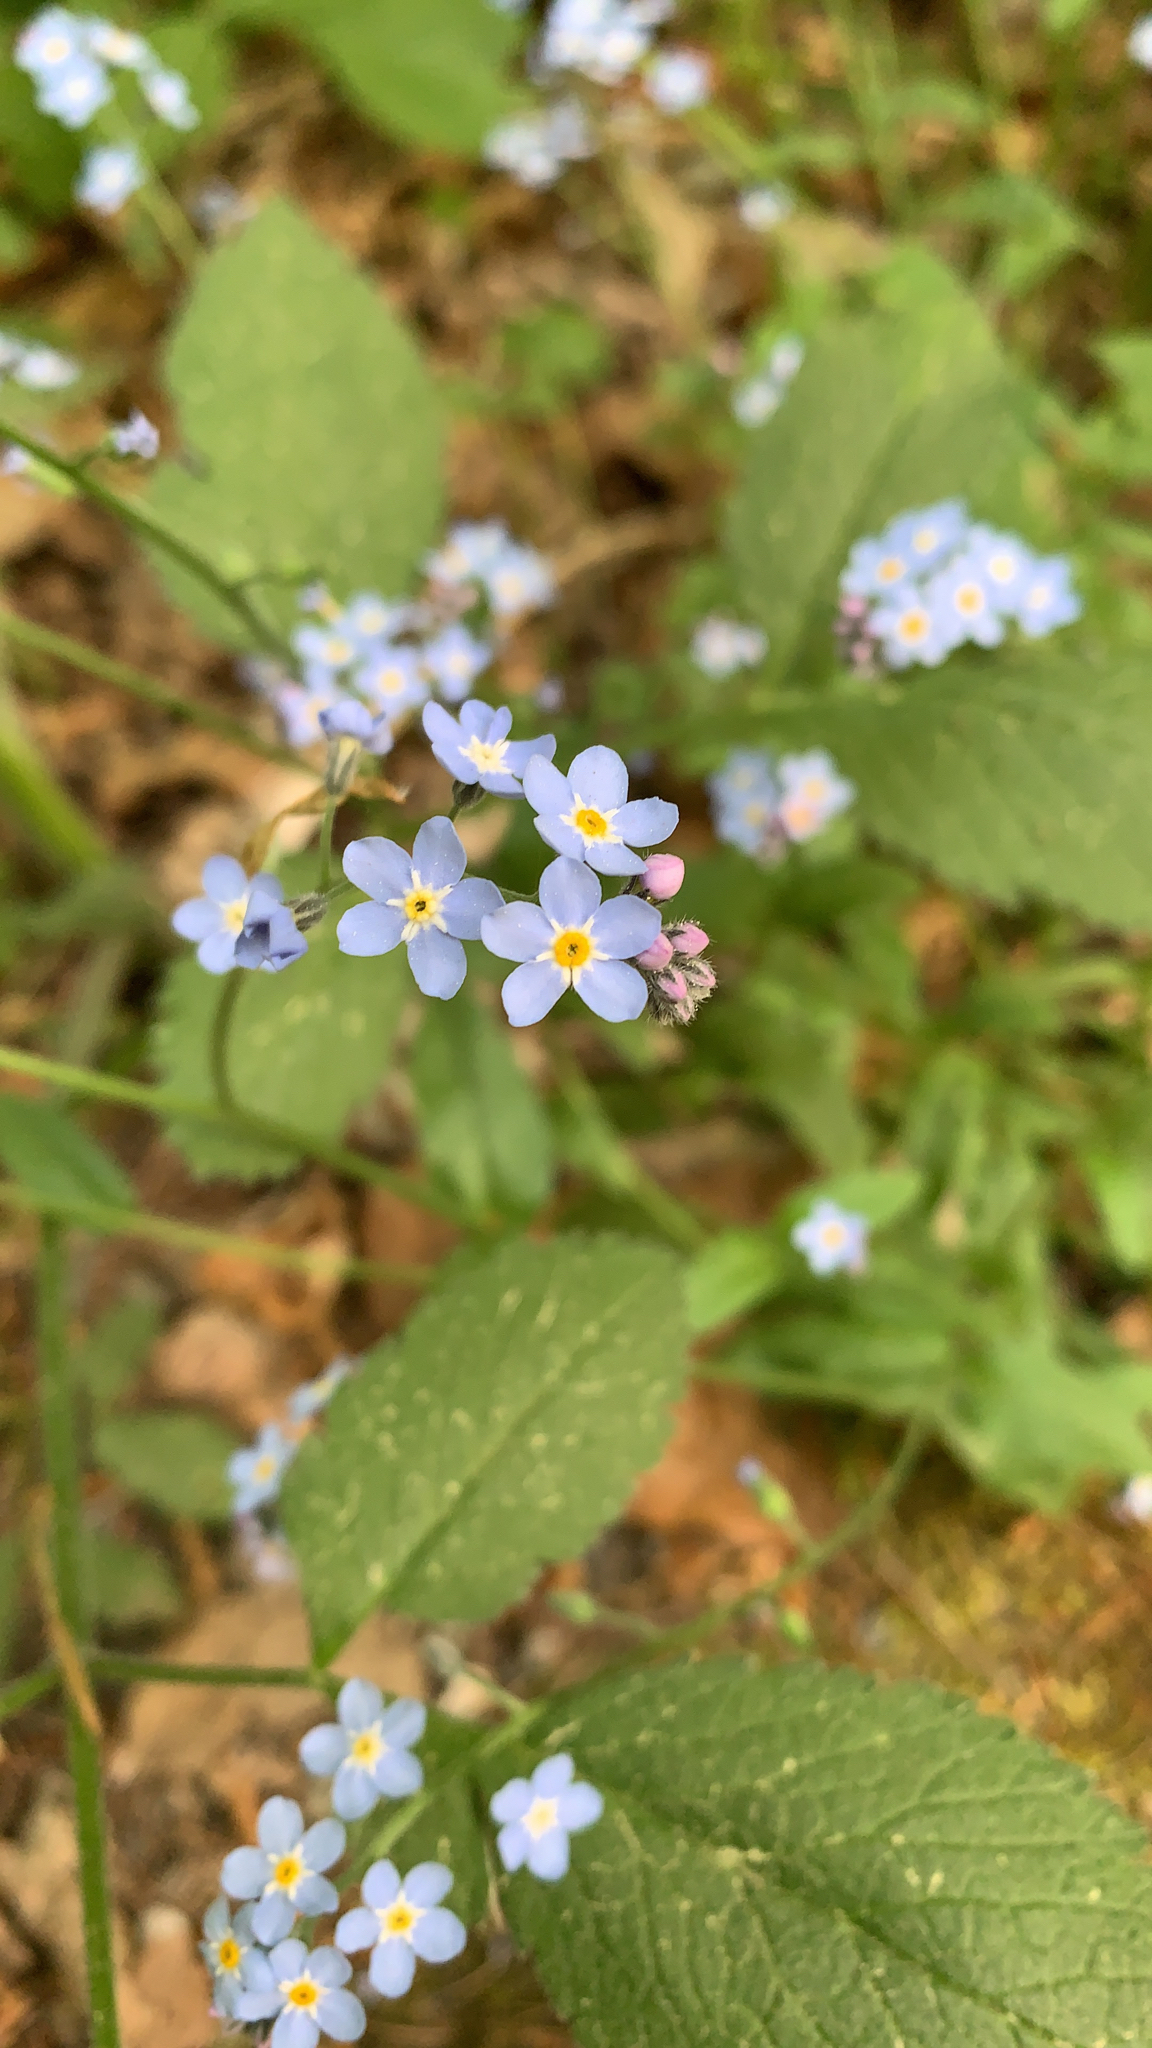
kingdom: Plantae
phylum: Tracheophyta
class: Magnoliopsida
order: Boraginales
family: Boraginaceae
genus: Myosotis
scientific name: Myosotis sylvatica
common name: Wood forget-me-not
